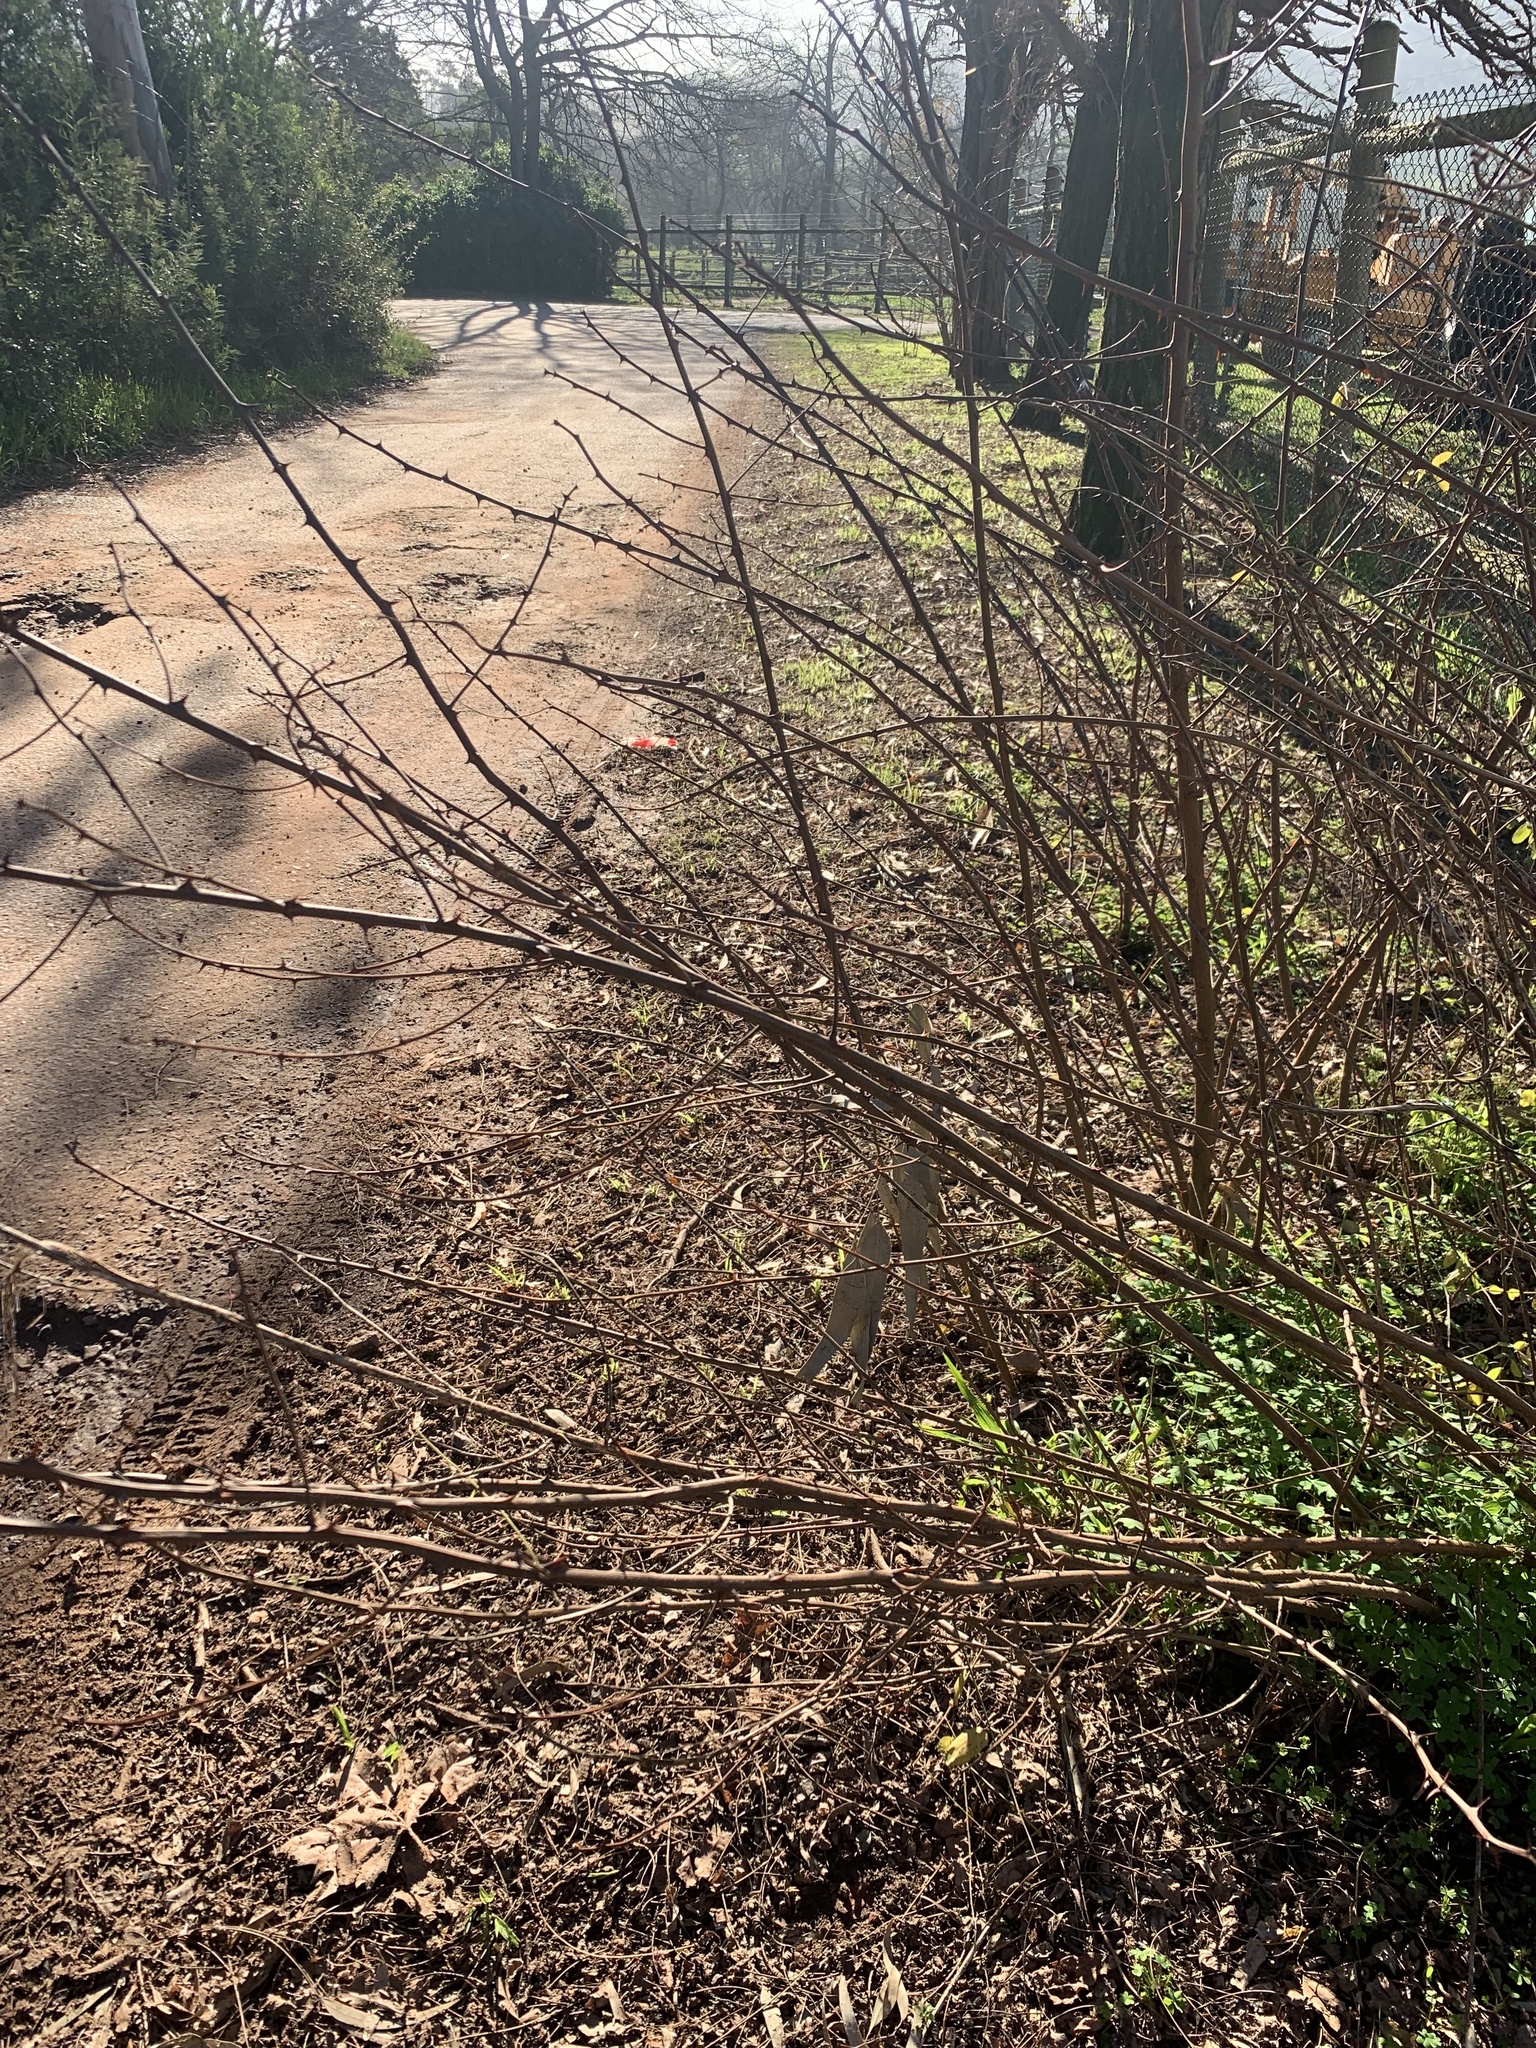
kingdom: Plantae
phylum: Tracheophyta
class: Magnoliopsida
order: Fabales
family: Fabaceae
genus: Robinia
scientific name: Robinia pseudoacacia
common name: Black locust
